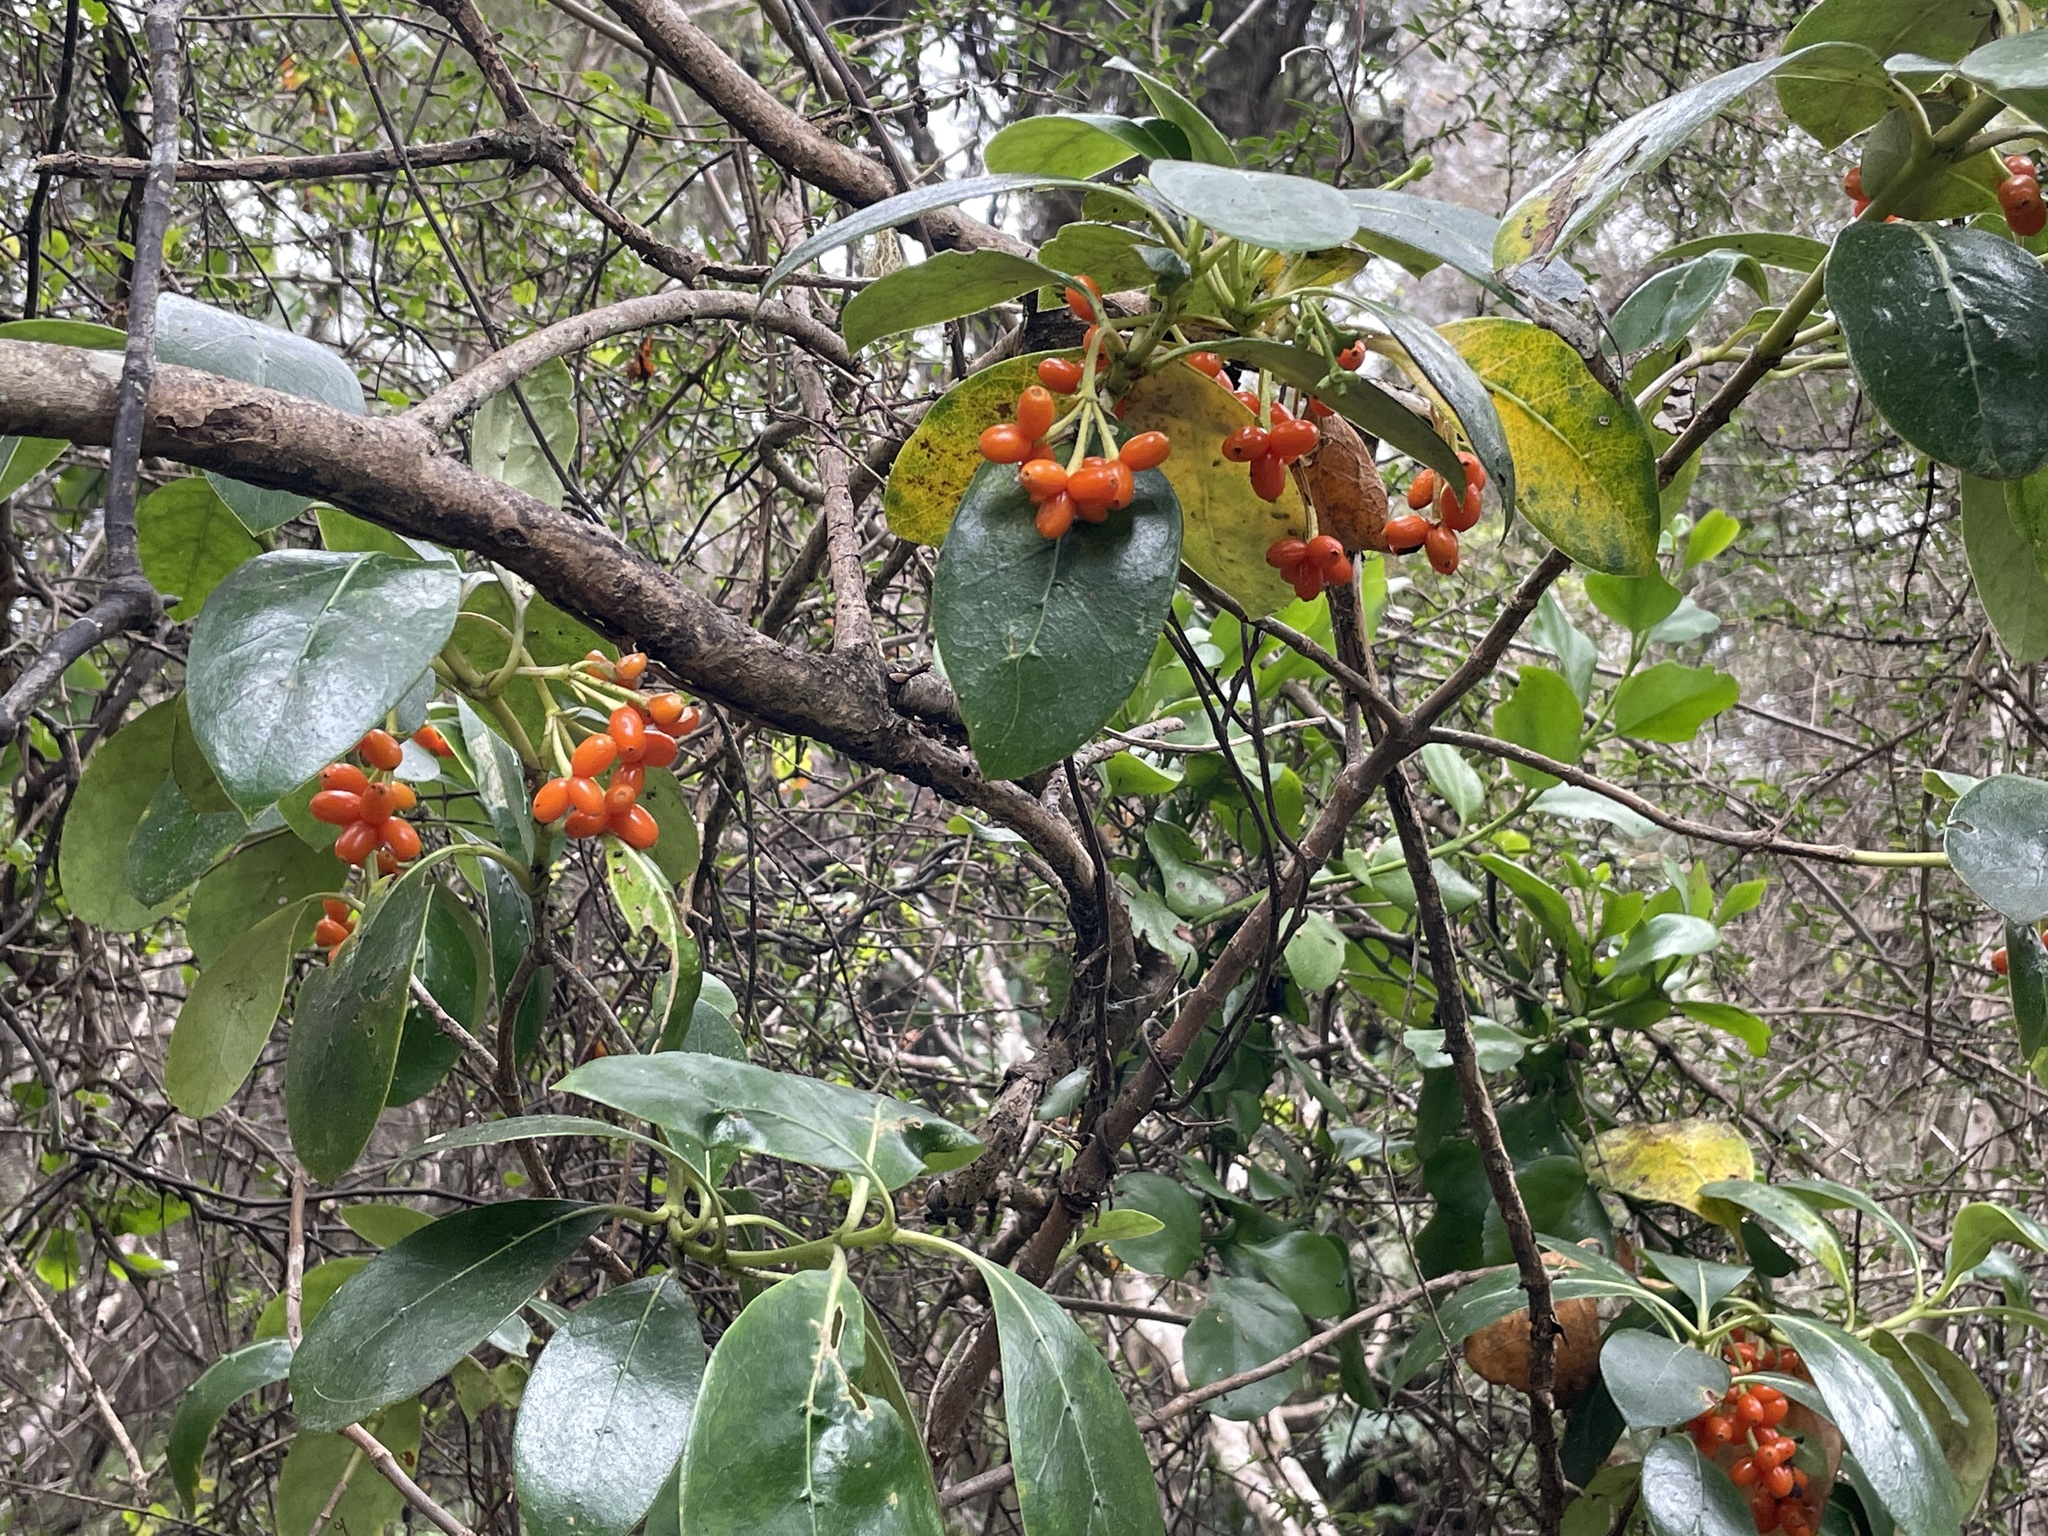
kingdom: Plantae
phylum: Tracheophyta
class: Magnoliopsida
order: Gentianales
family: Rubiaceae
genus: Coprosma
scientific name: Coprosma lucida
